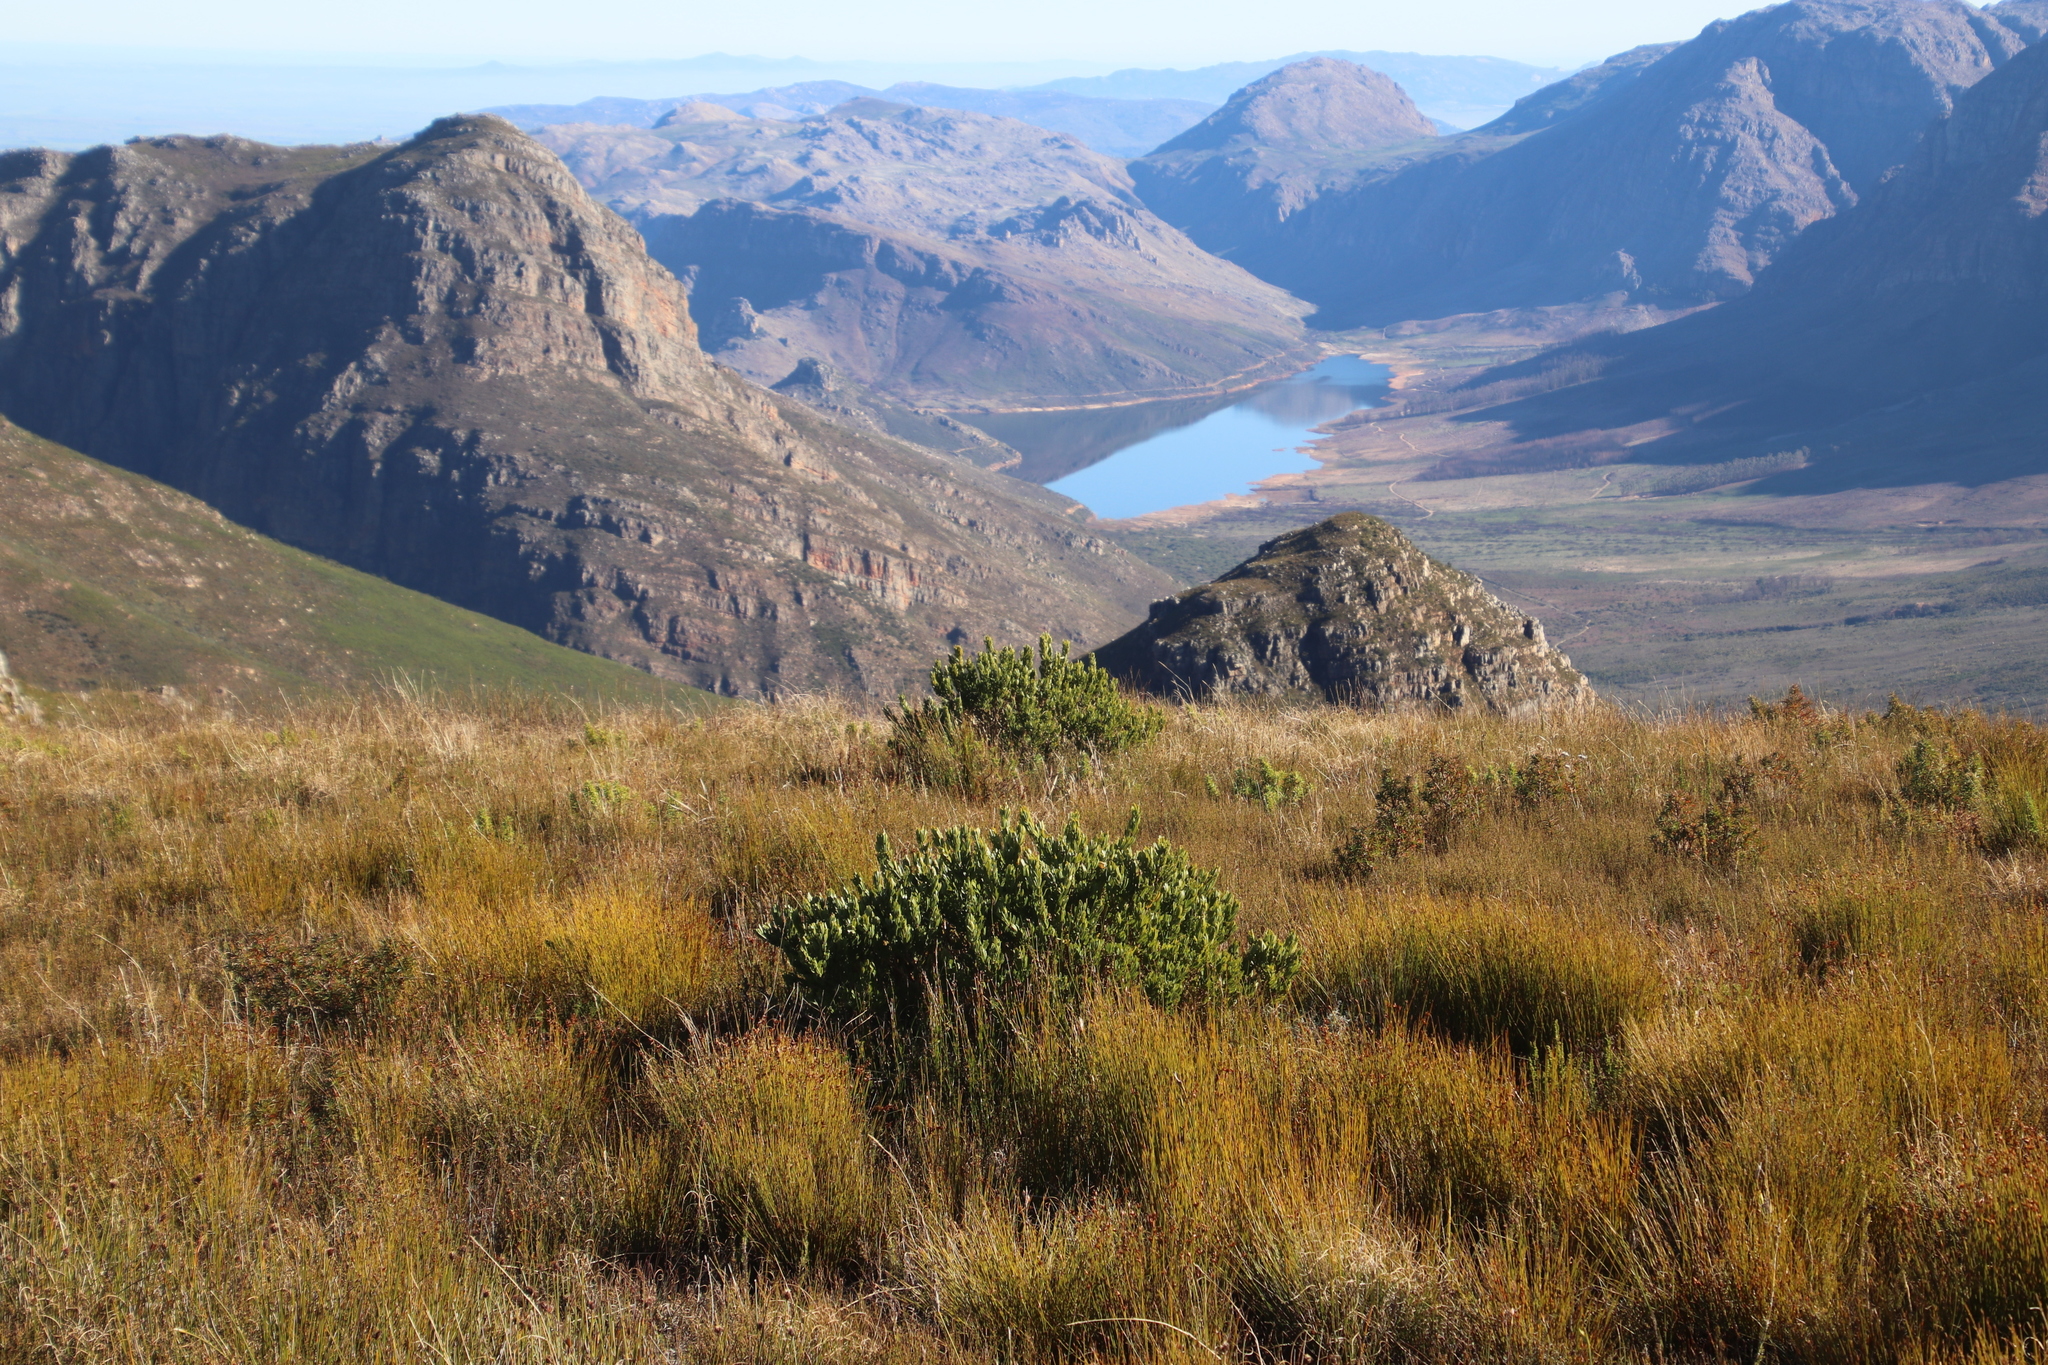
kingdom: Plantae
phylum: Tracheophyta
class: Magnoliopsida
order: Fabales
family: Fabaceae
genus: Psoralea
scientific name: Psoralea mundiana
